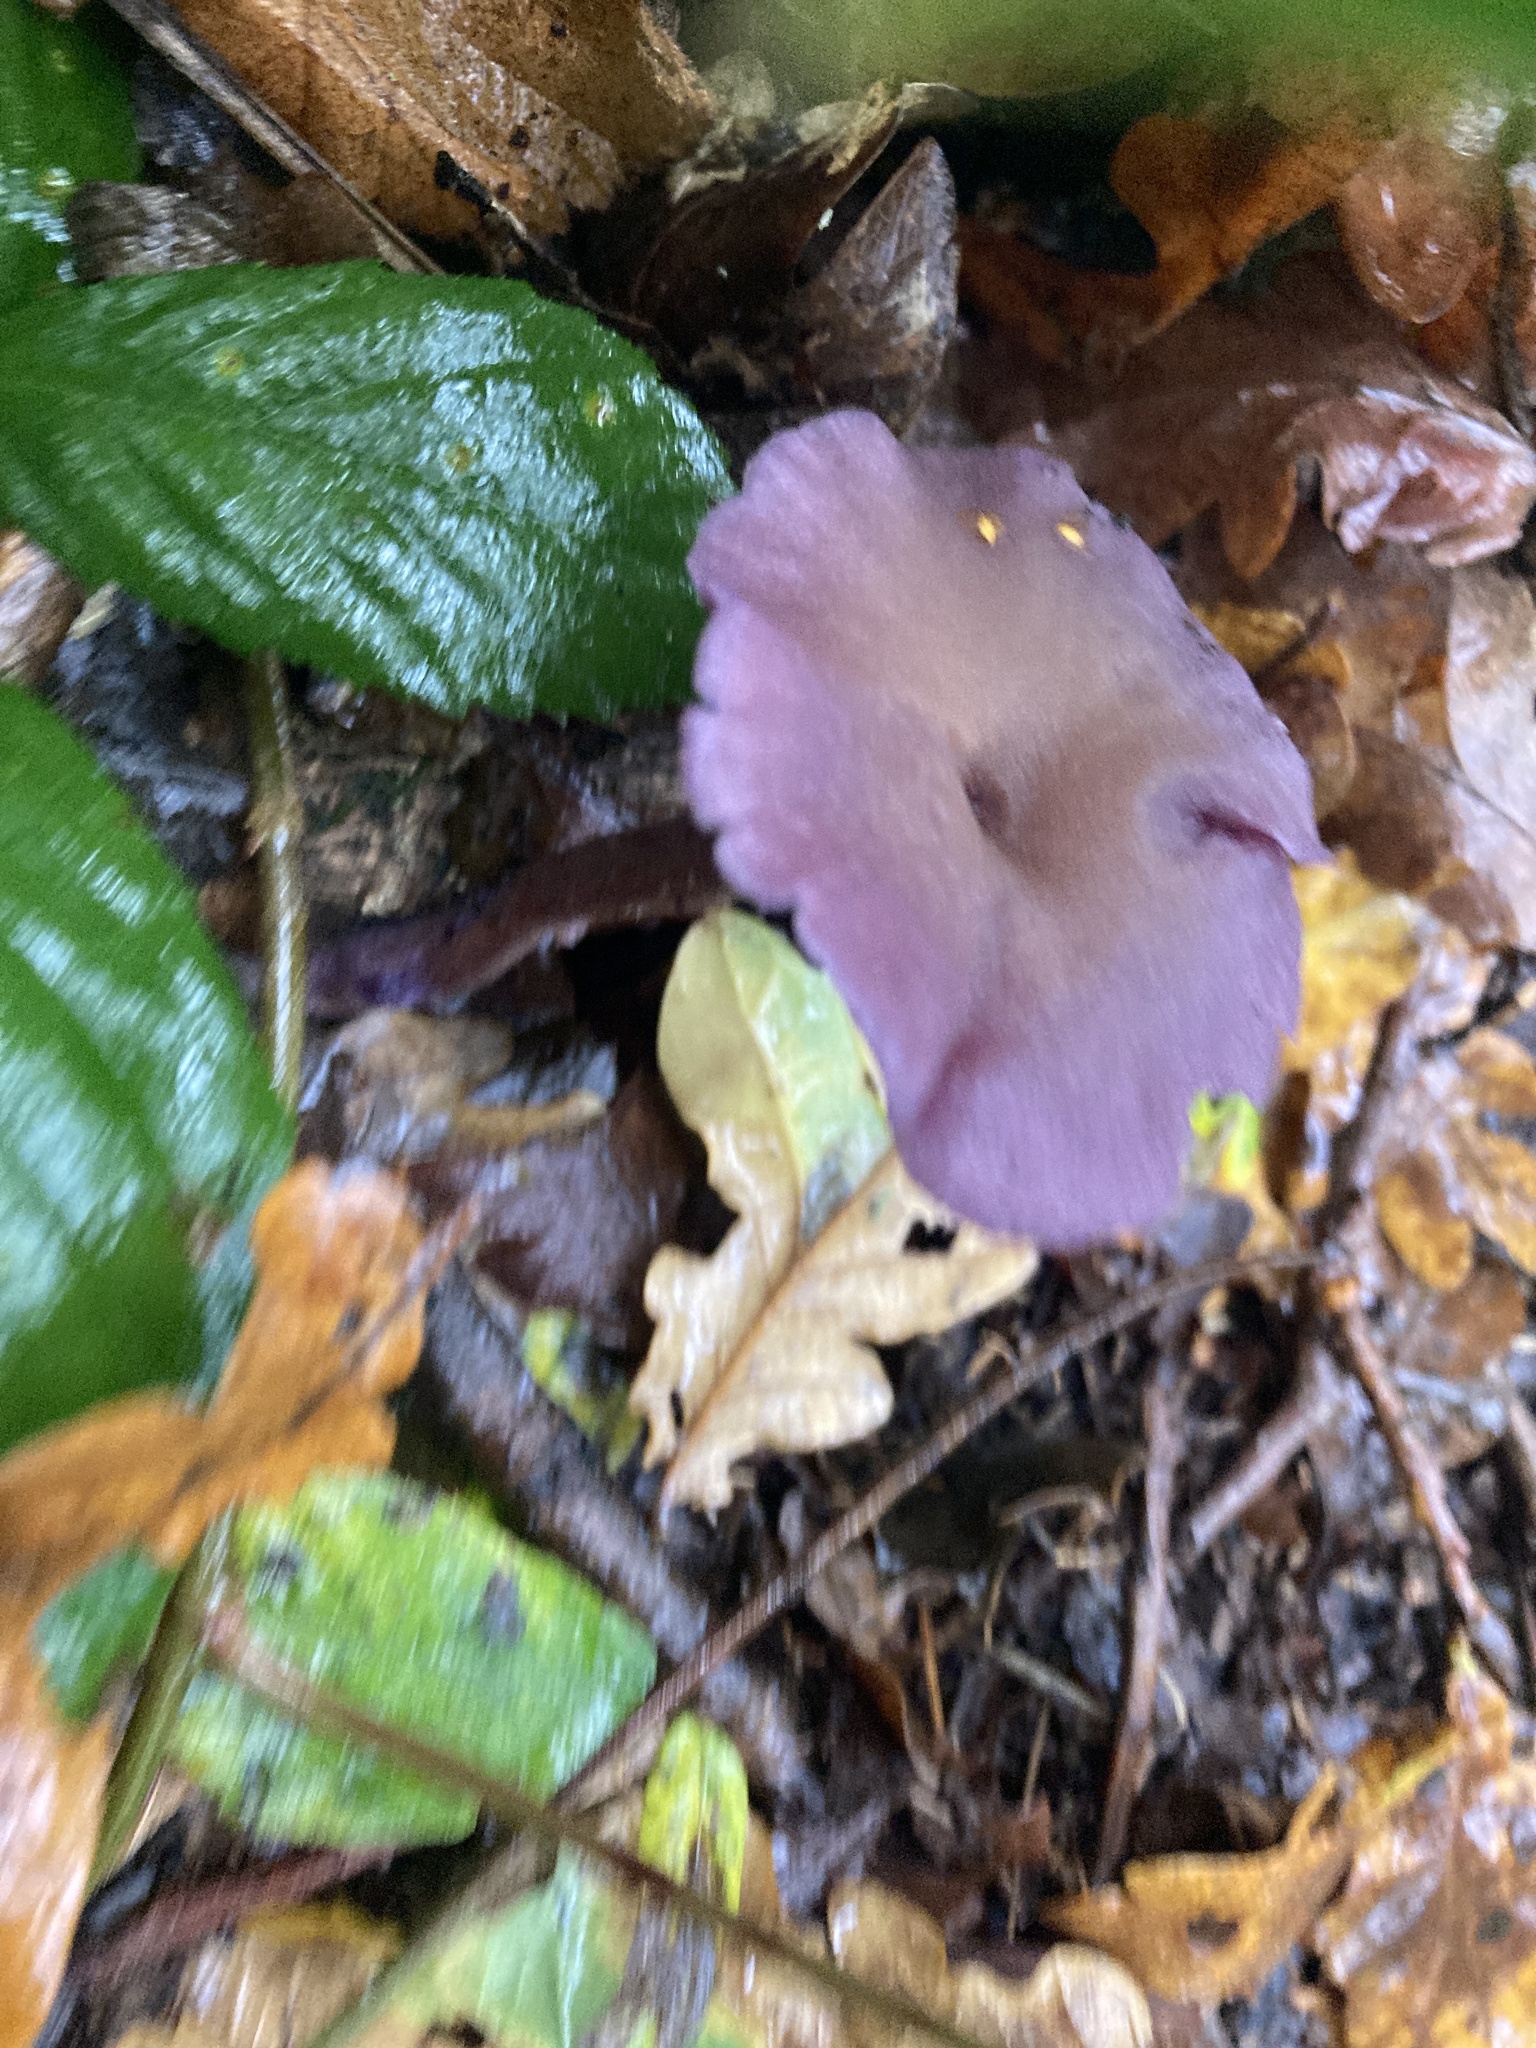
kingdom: Fungi
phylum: Basidiomycota
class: Agaricomycetes
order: Agaricales
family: Hydnangiaceae
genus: Laccaria
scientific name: Laccaria amethystina
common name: Amethyst deceiver
